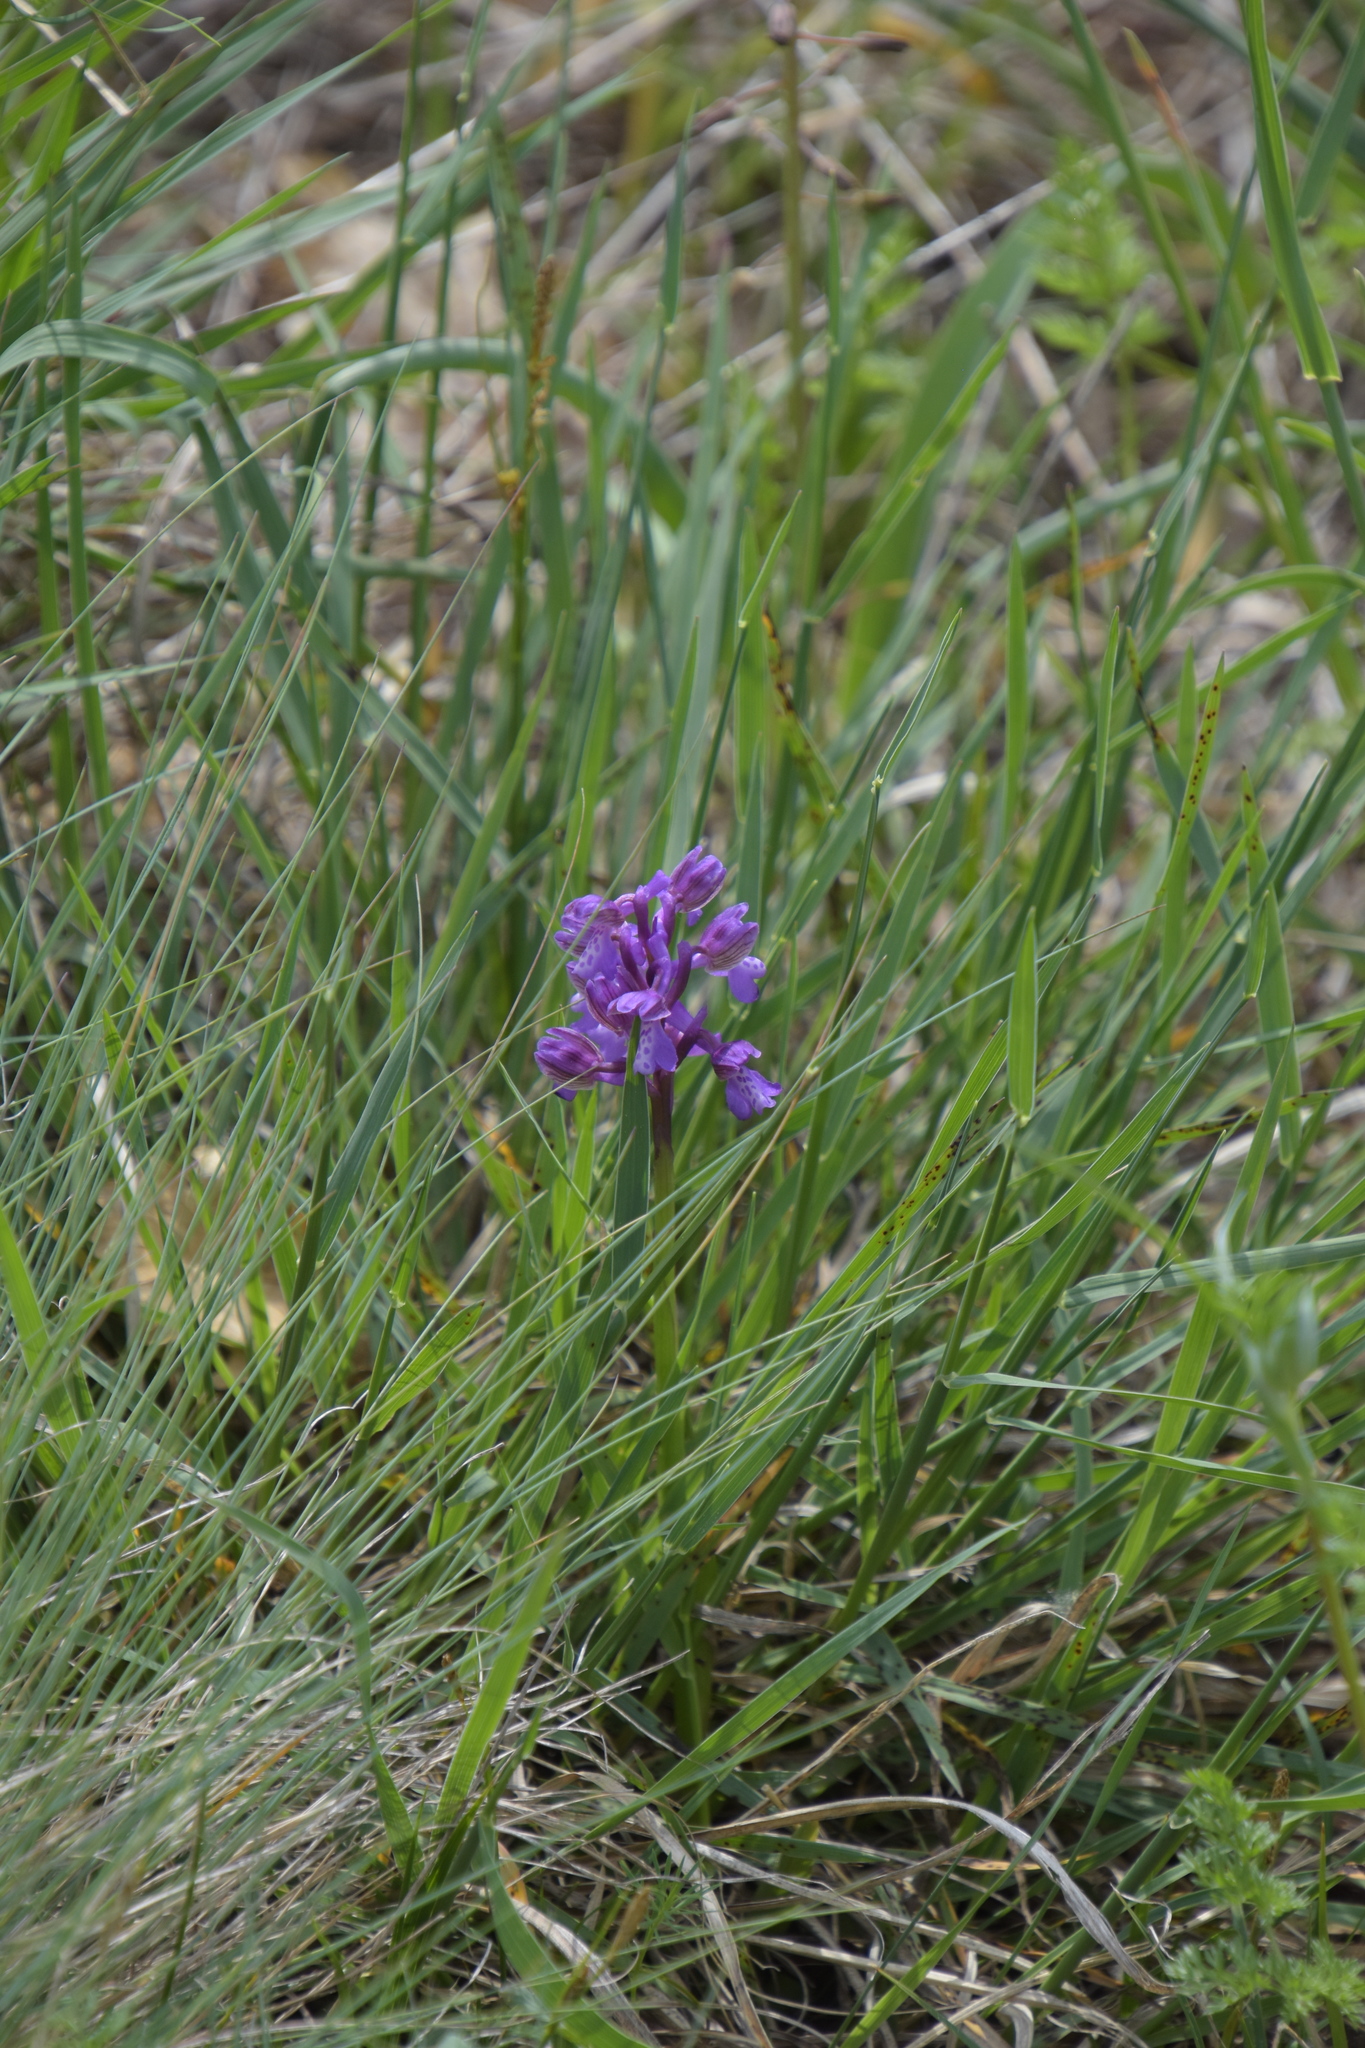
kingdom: Plantae
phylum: Tracheophyta
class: Liliopsida
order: Asparagales
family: Orchidaceae
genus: Anacamptis
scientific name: Anacamptis morio
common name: Green-winged orchid
